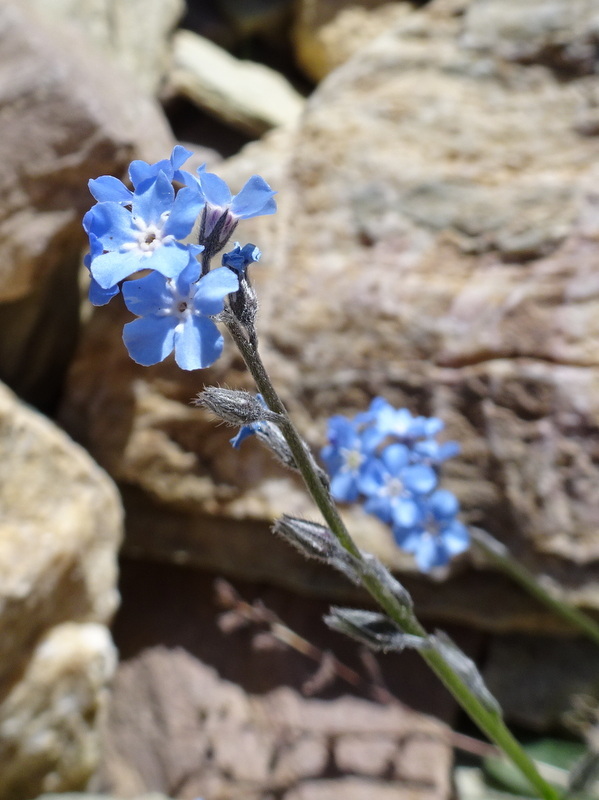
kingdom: Plantae
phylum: Tracheophyta
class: Magnoliopsida
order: Boraginales
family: Boraginaceae
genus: Myosotis
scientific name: Myosotis alpestris
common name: Alpine forget-me-not
